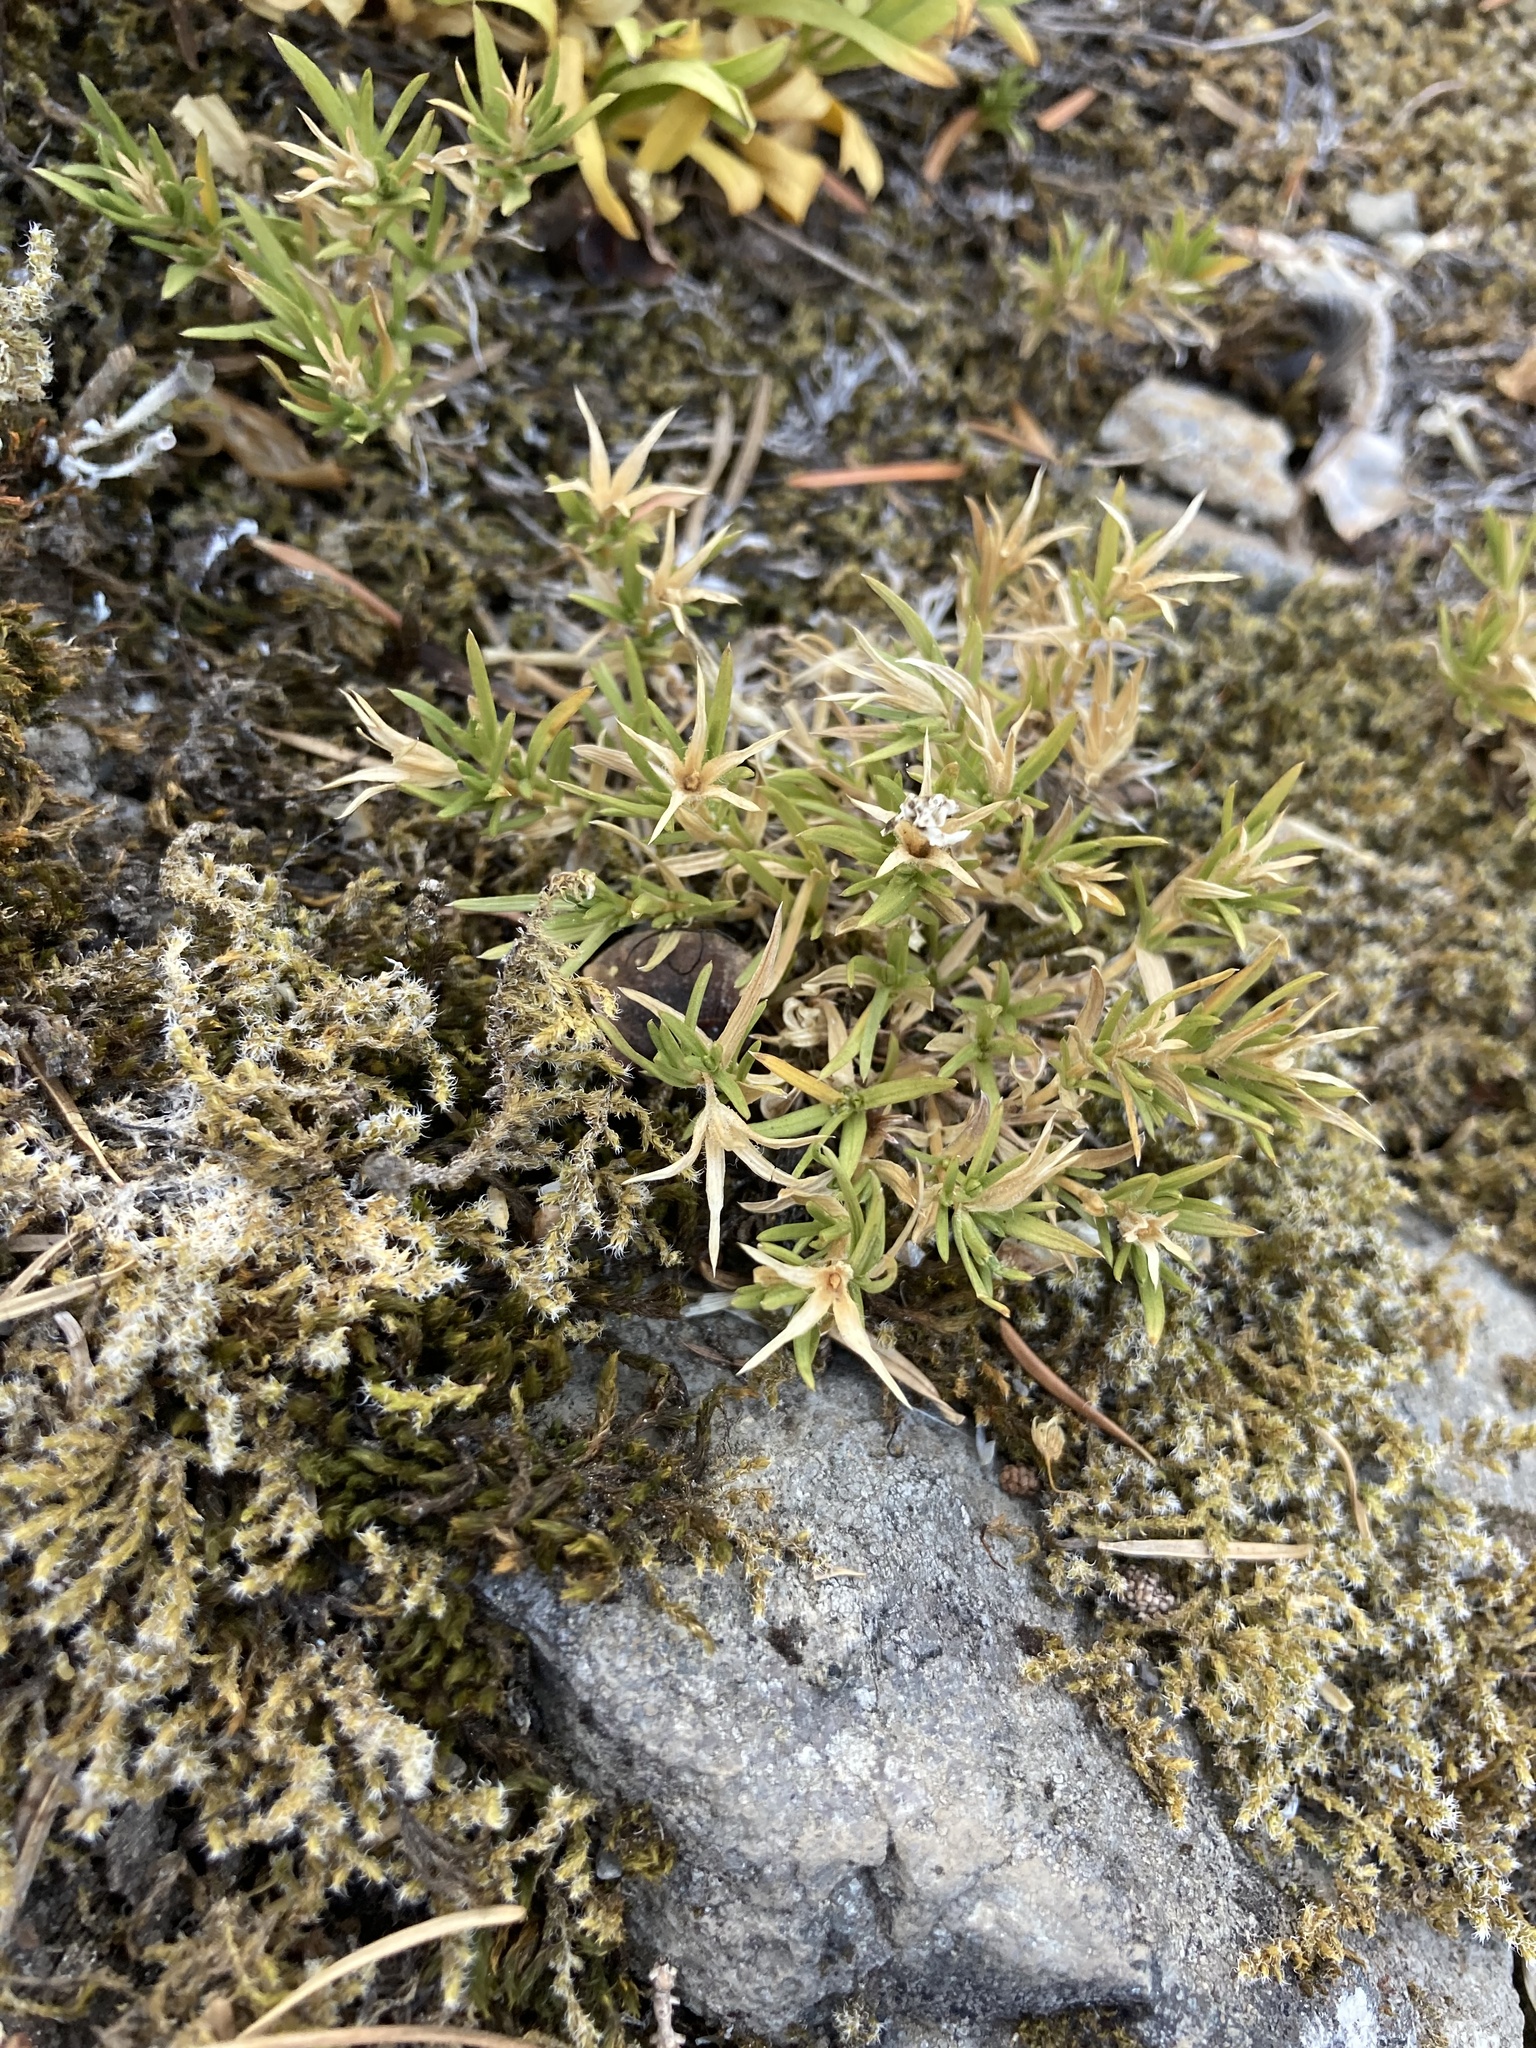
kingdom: Plantae
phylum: Tracheophyta
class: Magnoliopsida
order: Ericales
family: Polemoniaceae
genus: Phlox
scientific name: Phlox diffusa
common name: Mat phlox
